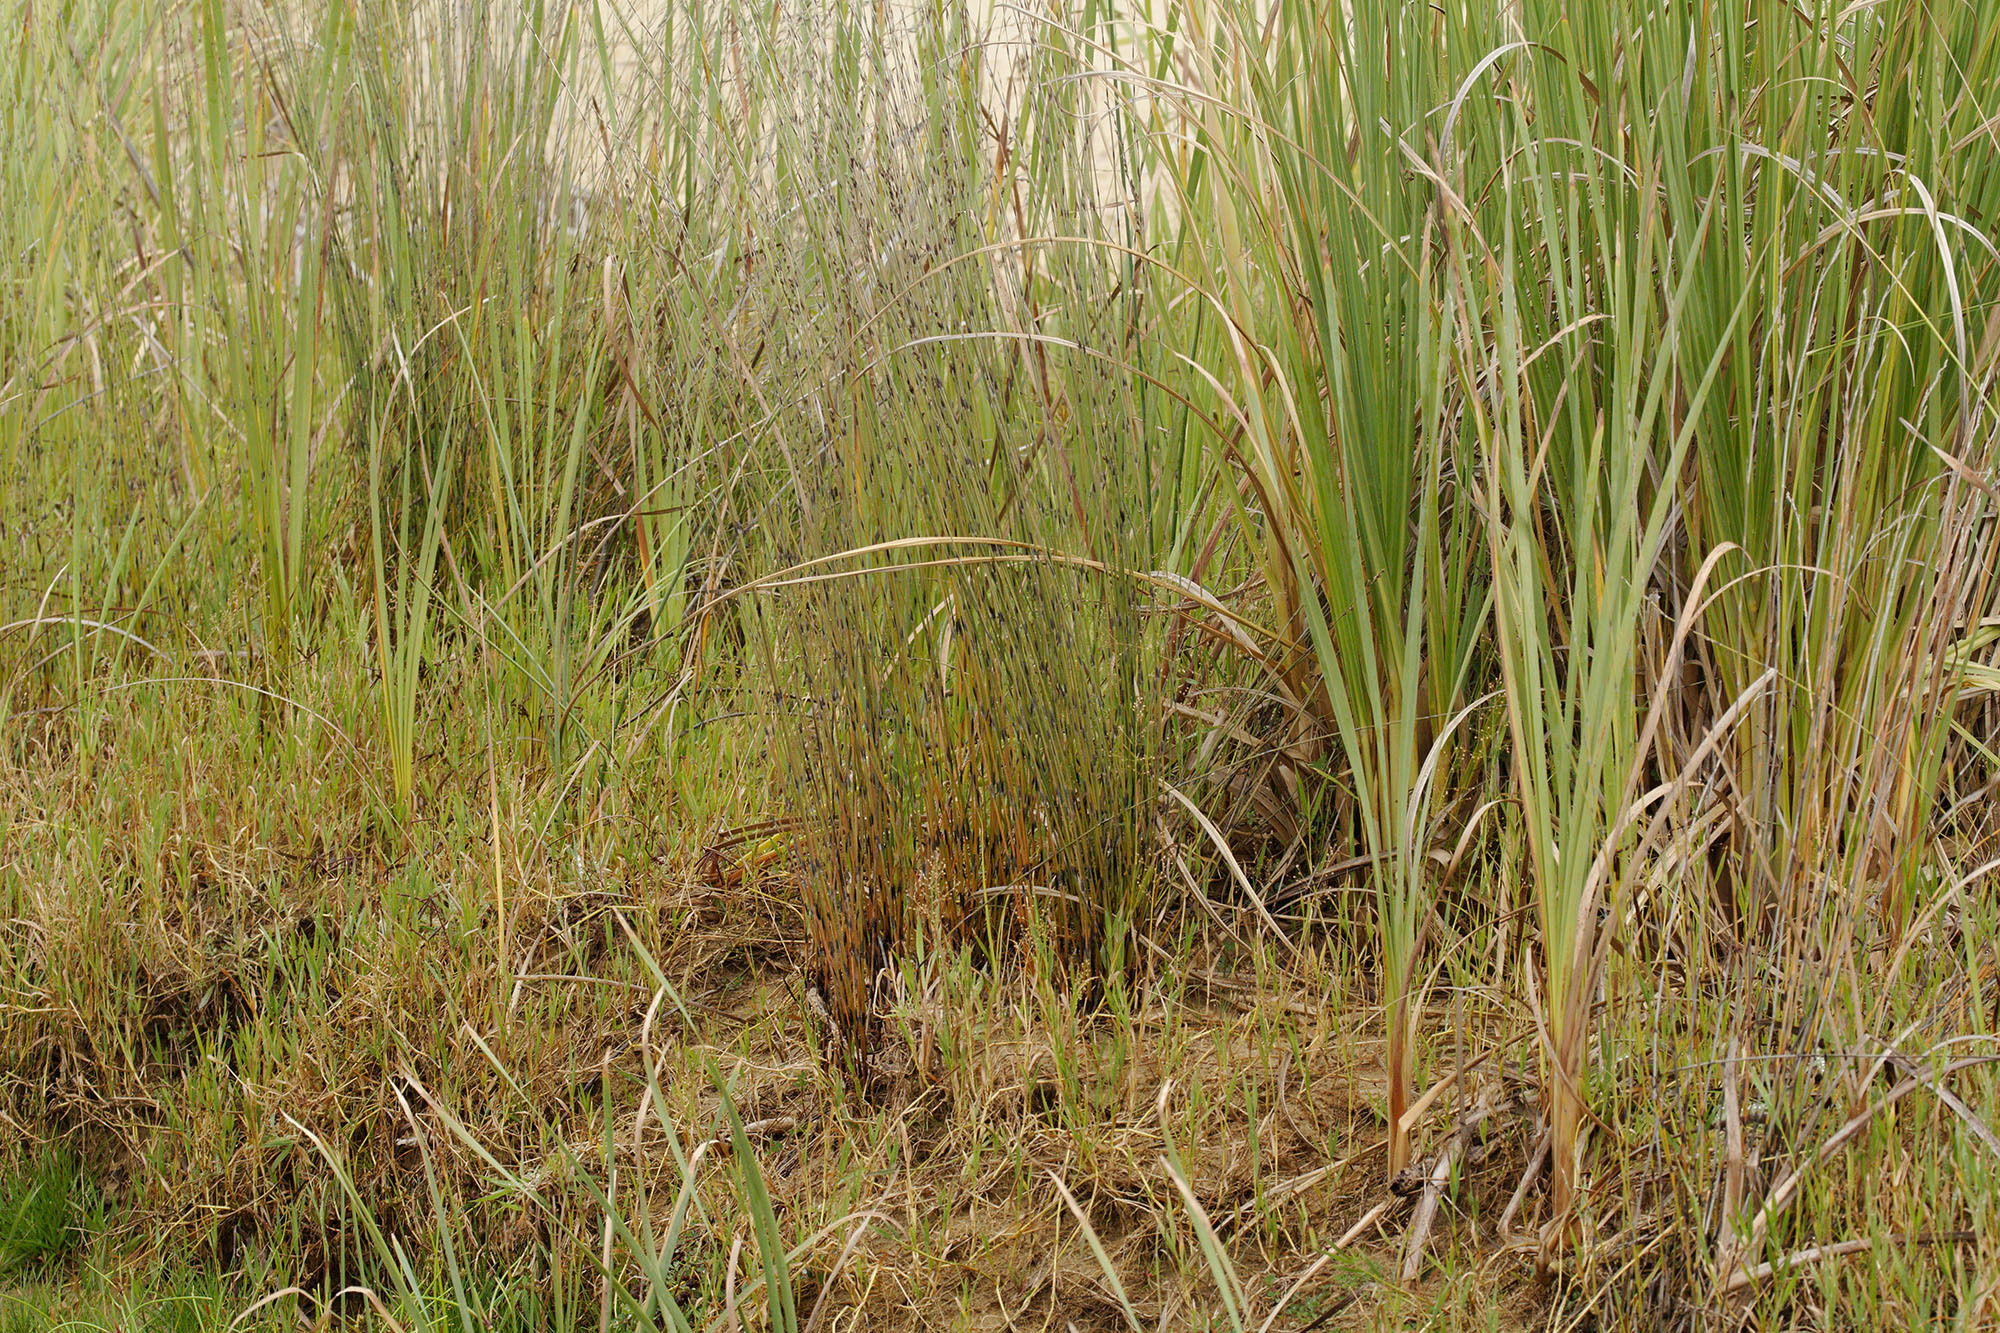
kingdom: Plantae
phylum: Tracheophyta
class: Liliopsida
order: Poales
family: Restionaceae
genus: Apodasmia
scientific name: Apodasmia similis
